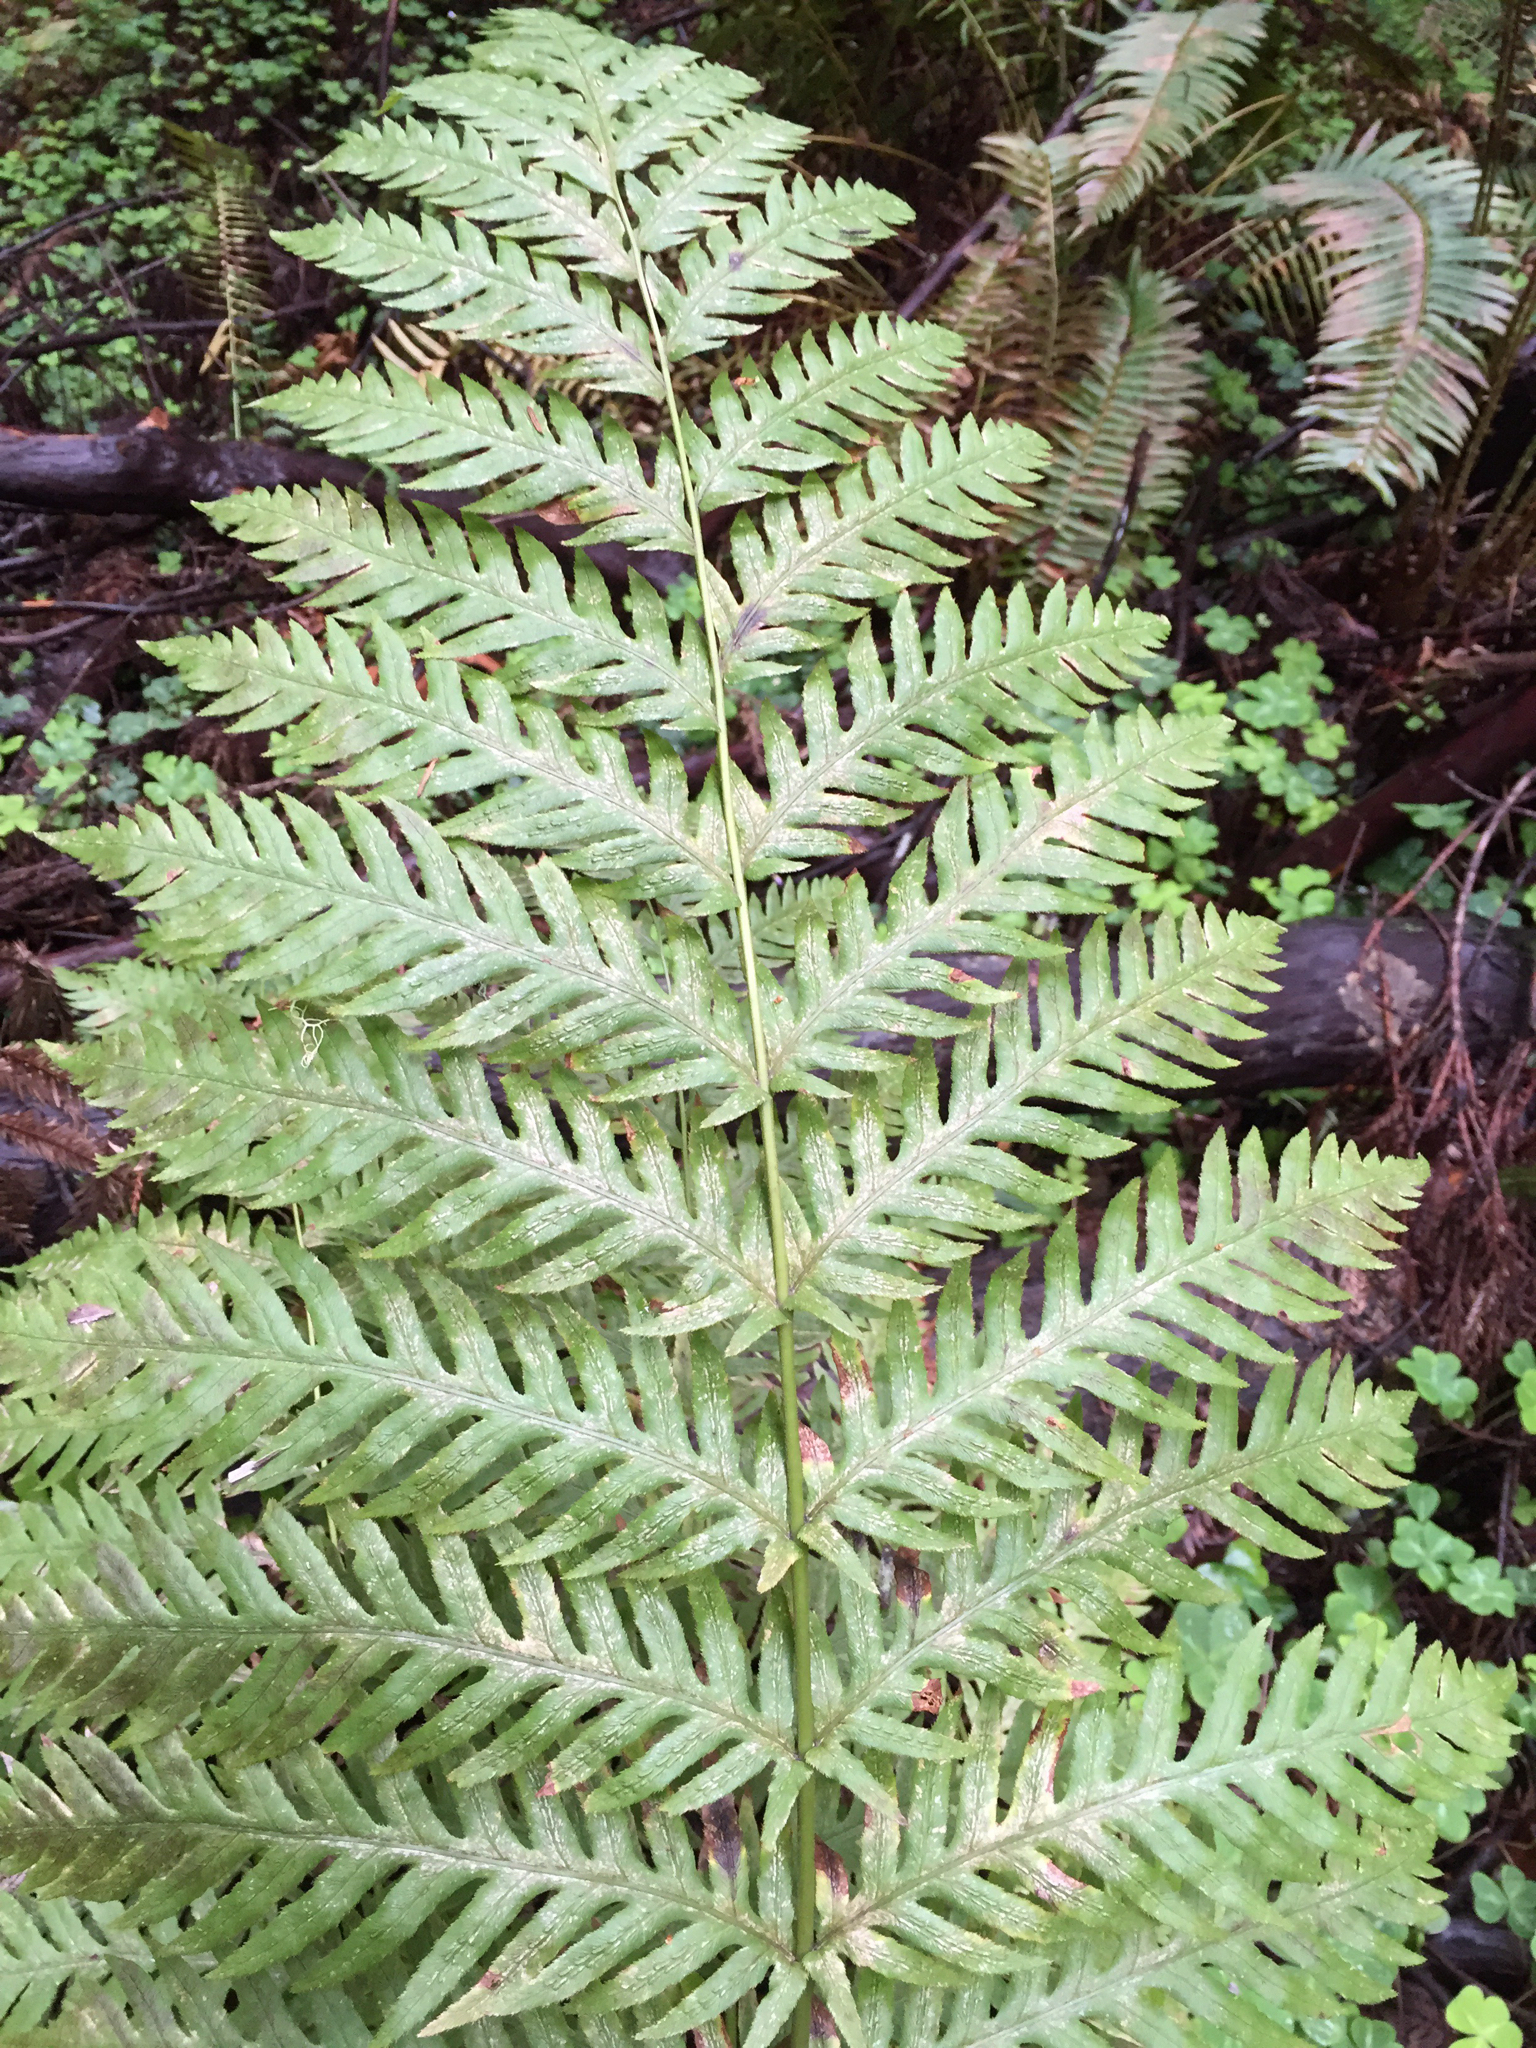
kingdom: Plantae
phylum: Tracheophyta
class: Polypodiopsida
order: Polypodiales
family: Blechnaceae
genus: Woodwardia
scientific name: Woodwardia fimbriata
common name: Giant chain fern
